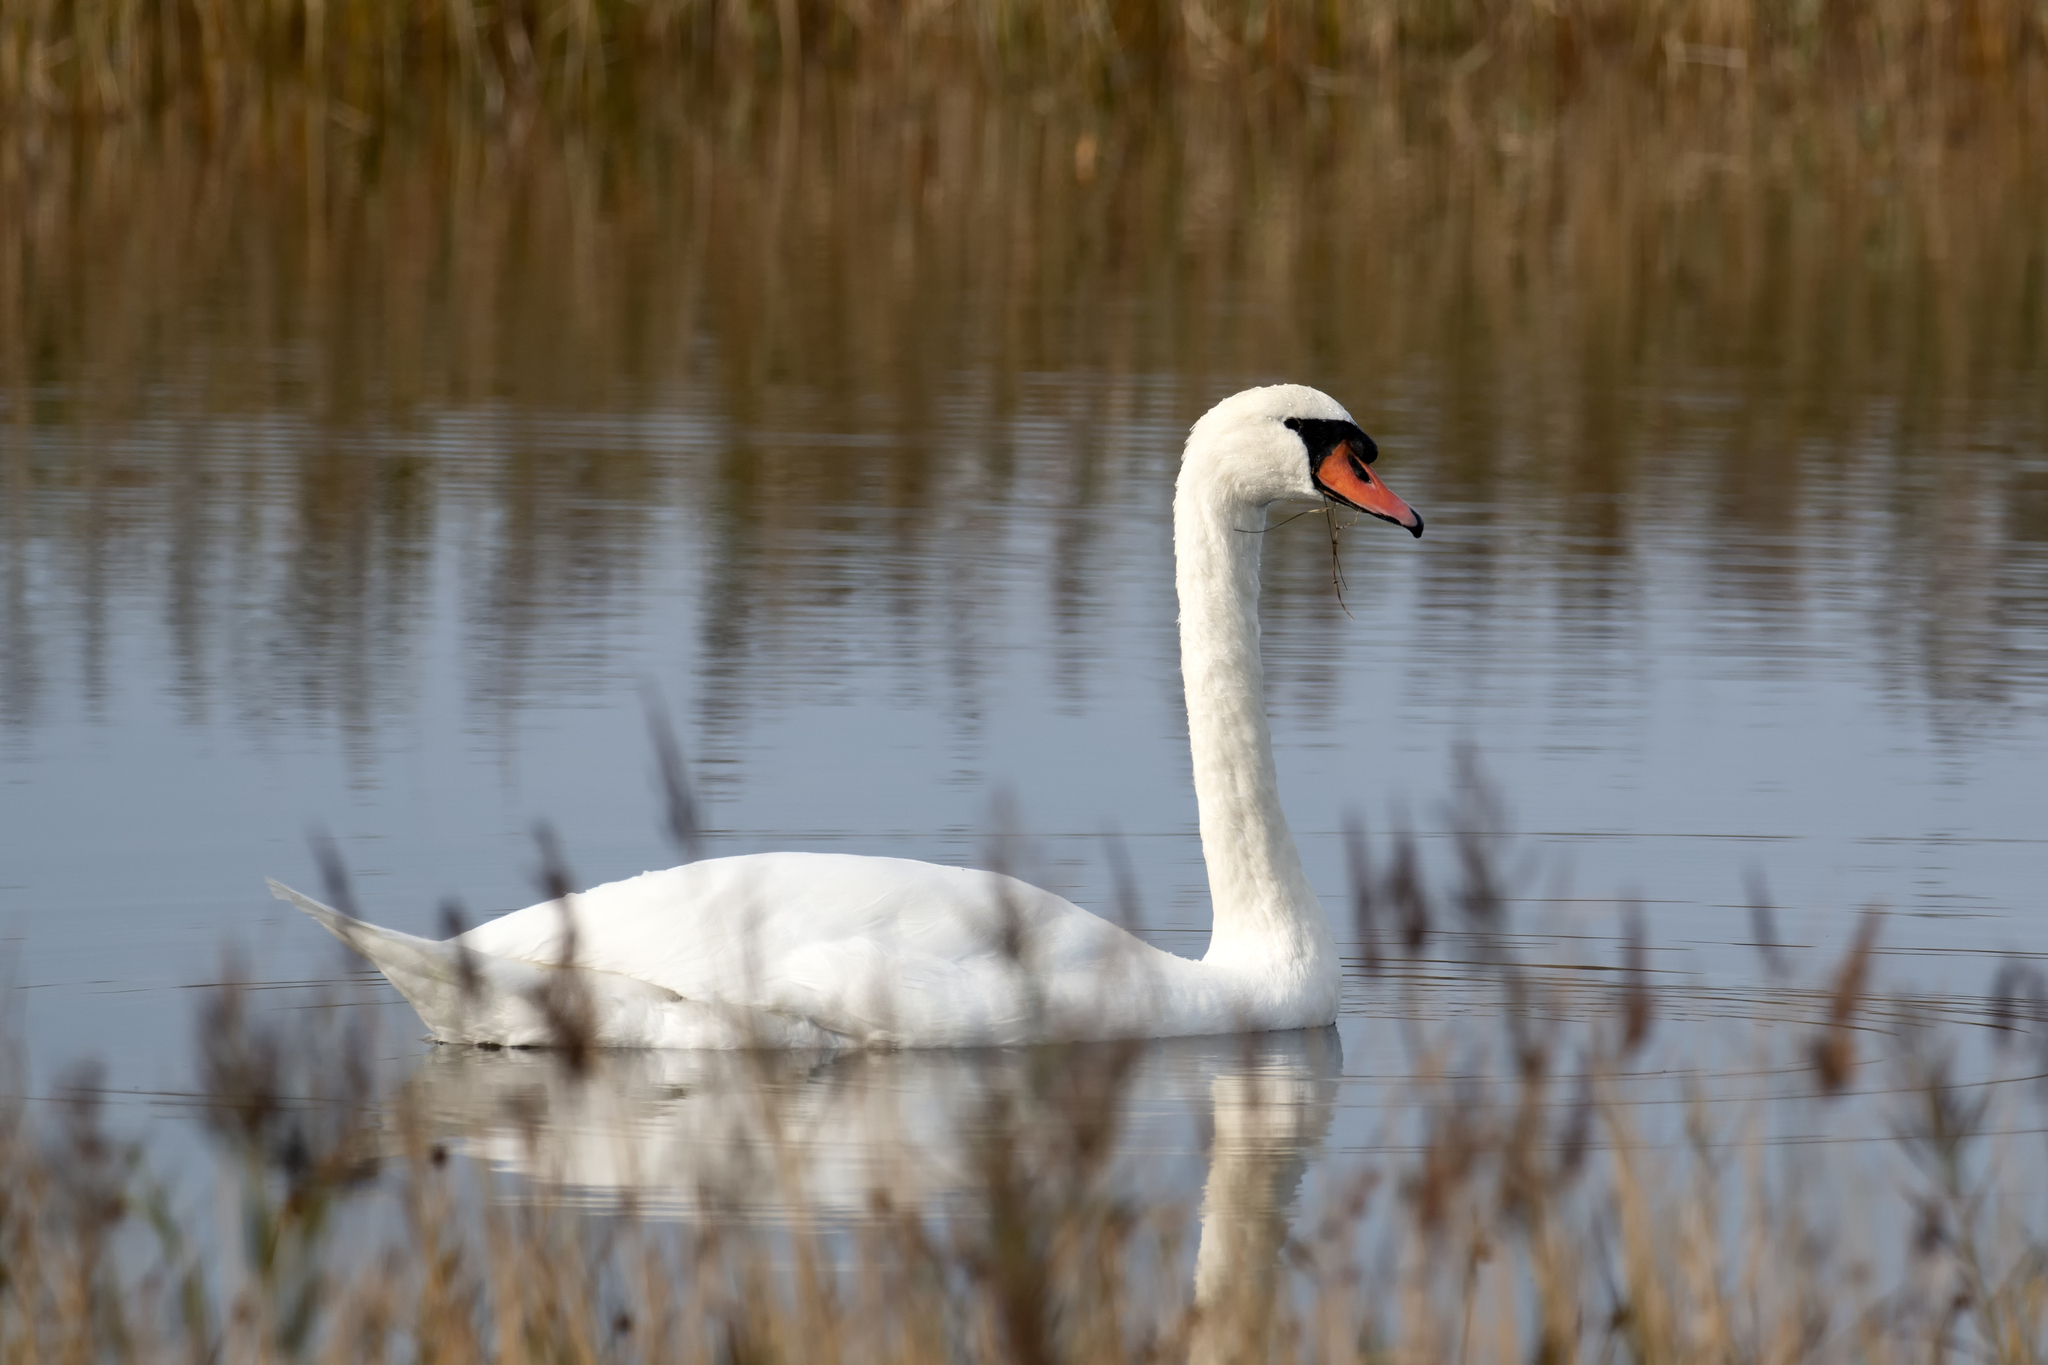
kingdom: Animalia
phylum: Chordata
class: Aves
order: Anseriformes
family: Anatidae
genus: Cygnus
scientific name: Cygnus olor
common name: Mute swan
